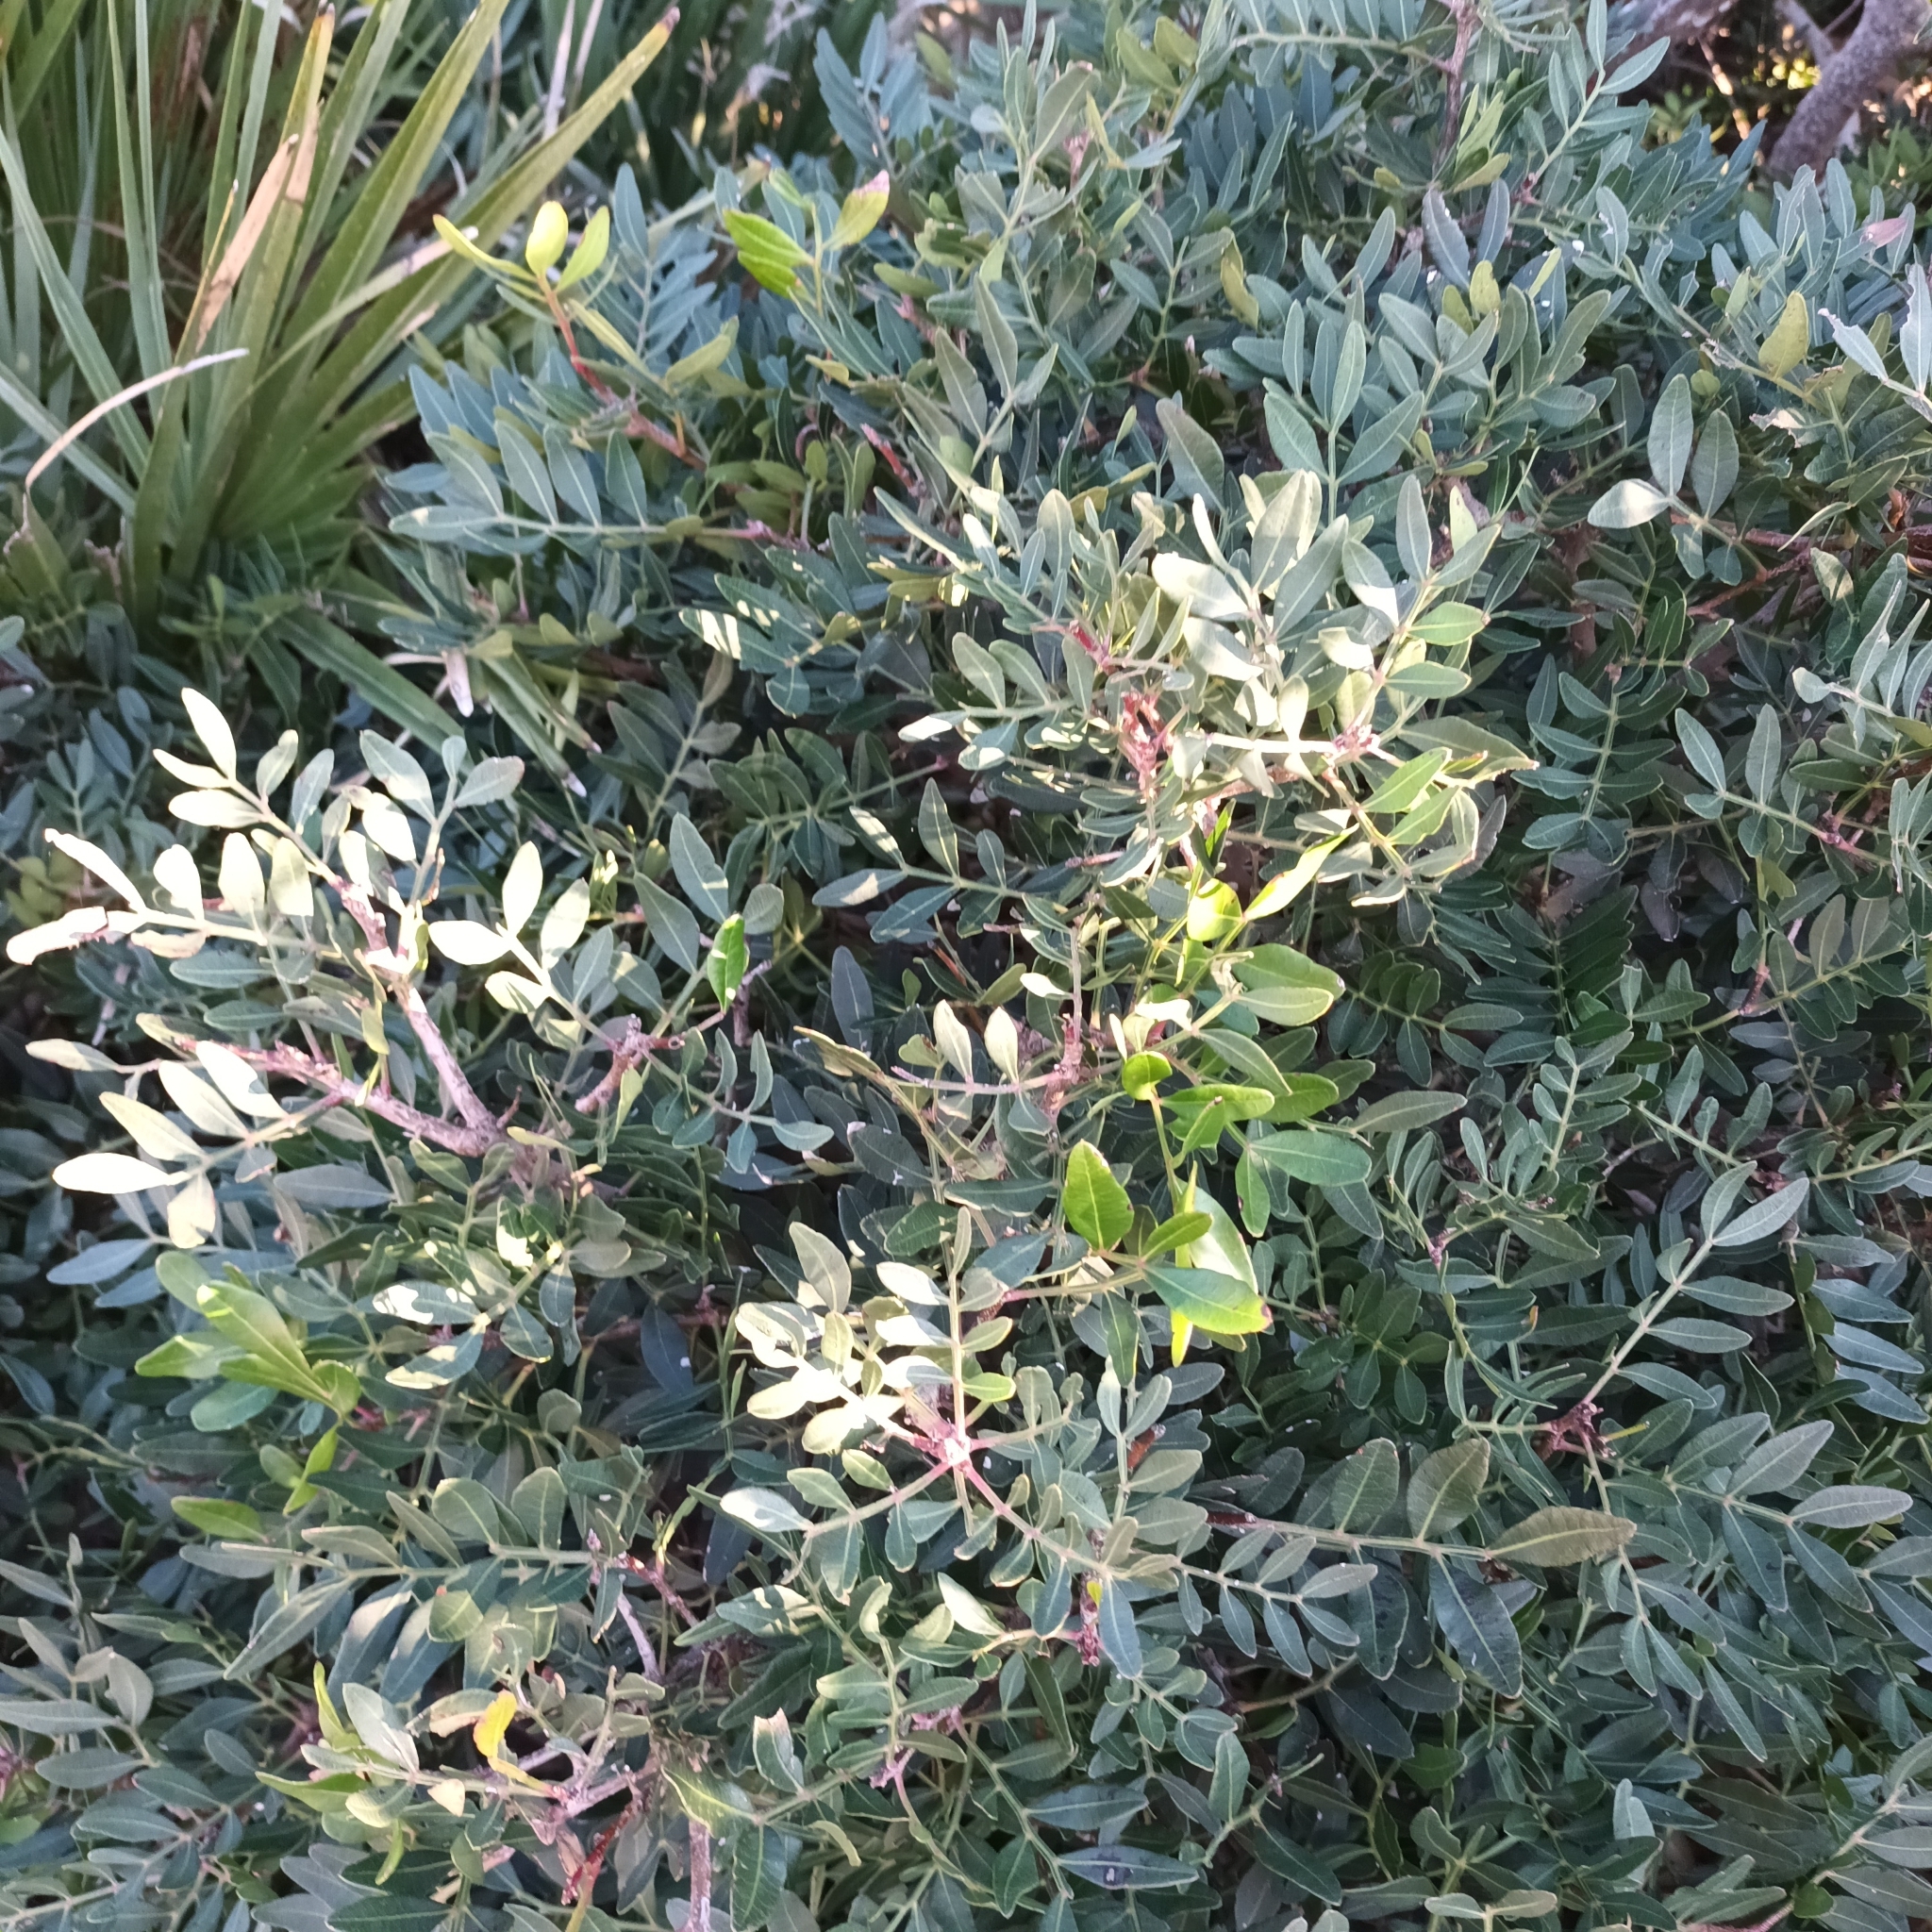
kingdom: Plantae
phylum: Tracheophyta
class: Magnoliopsida
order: Sapindales
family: Anacardiaceae
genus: Pistacia
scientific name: Pistacia lentiscus
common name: Lentisk
